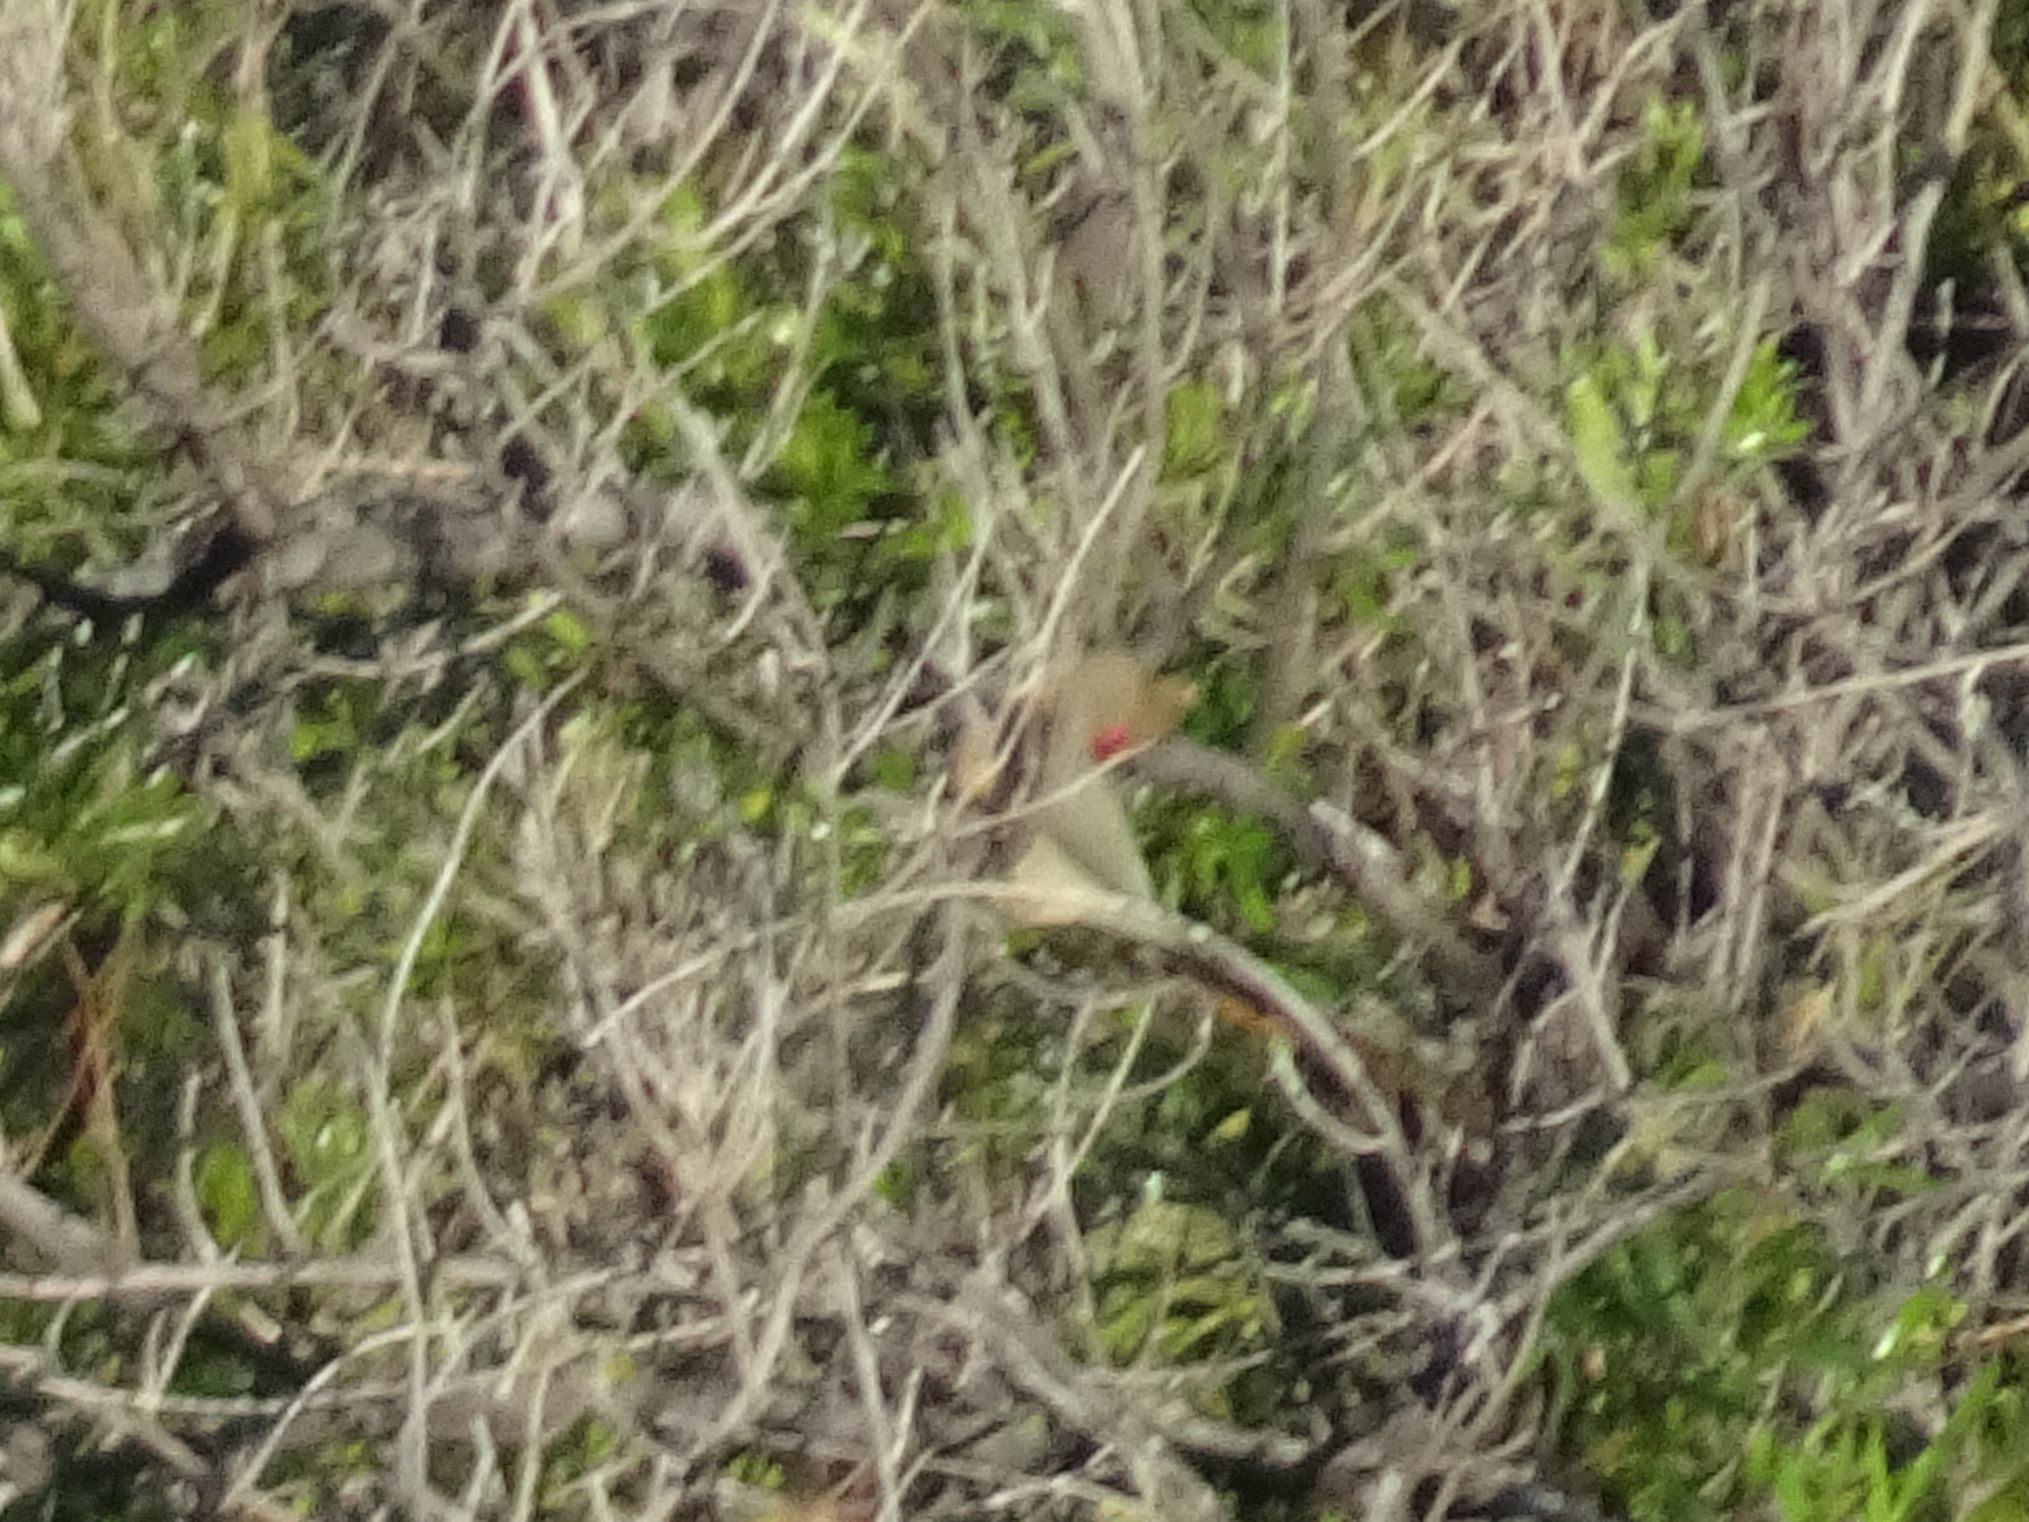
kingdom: Animalia
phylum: Chordata
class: Aves
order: Coliiformes
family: Coliidae
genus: Urocolius
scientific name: Urocolius indicus
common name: Red-faced mousebird
